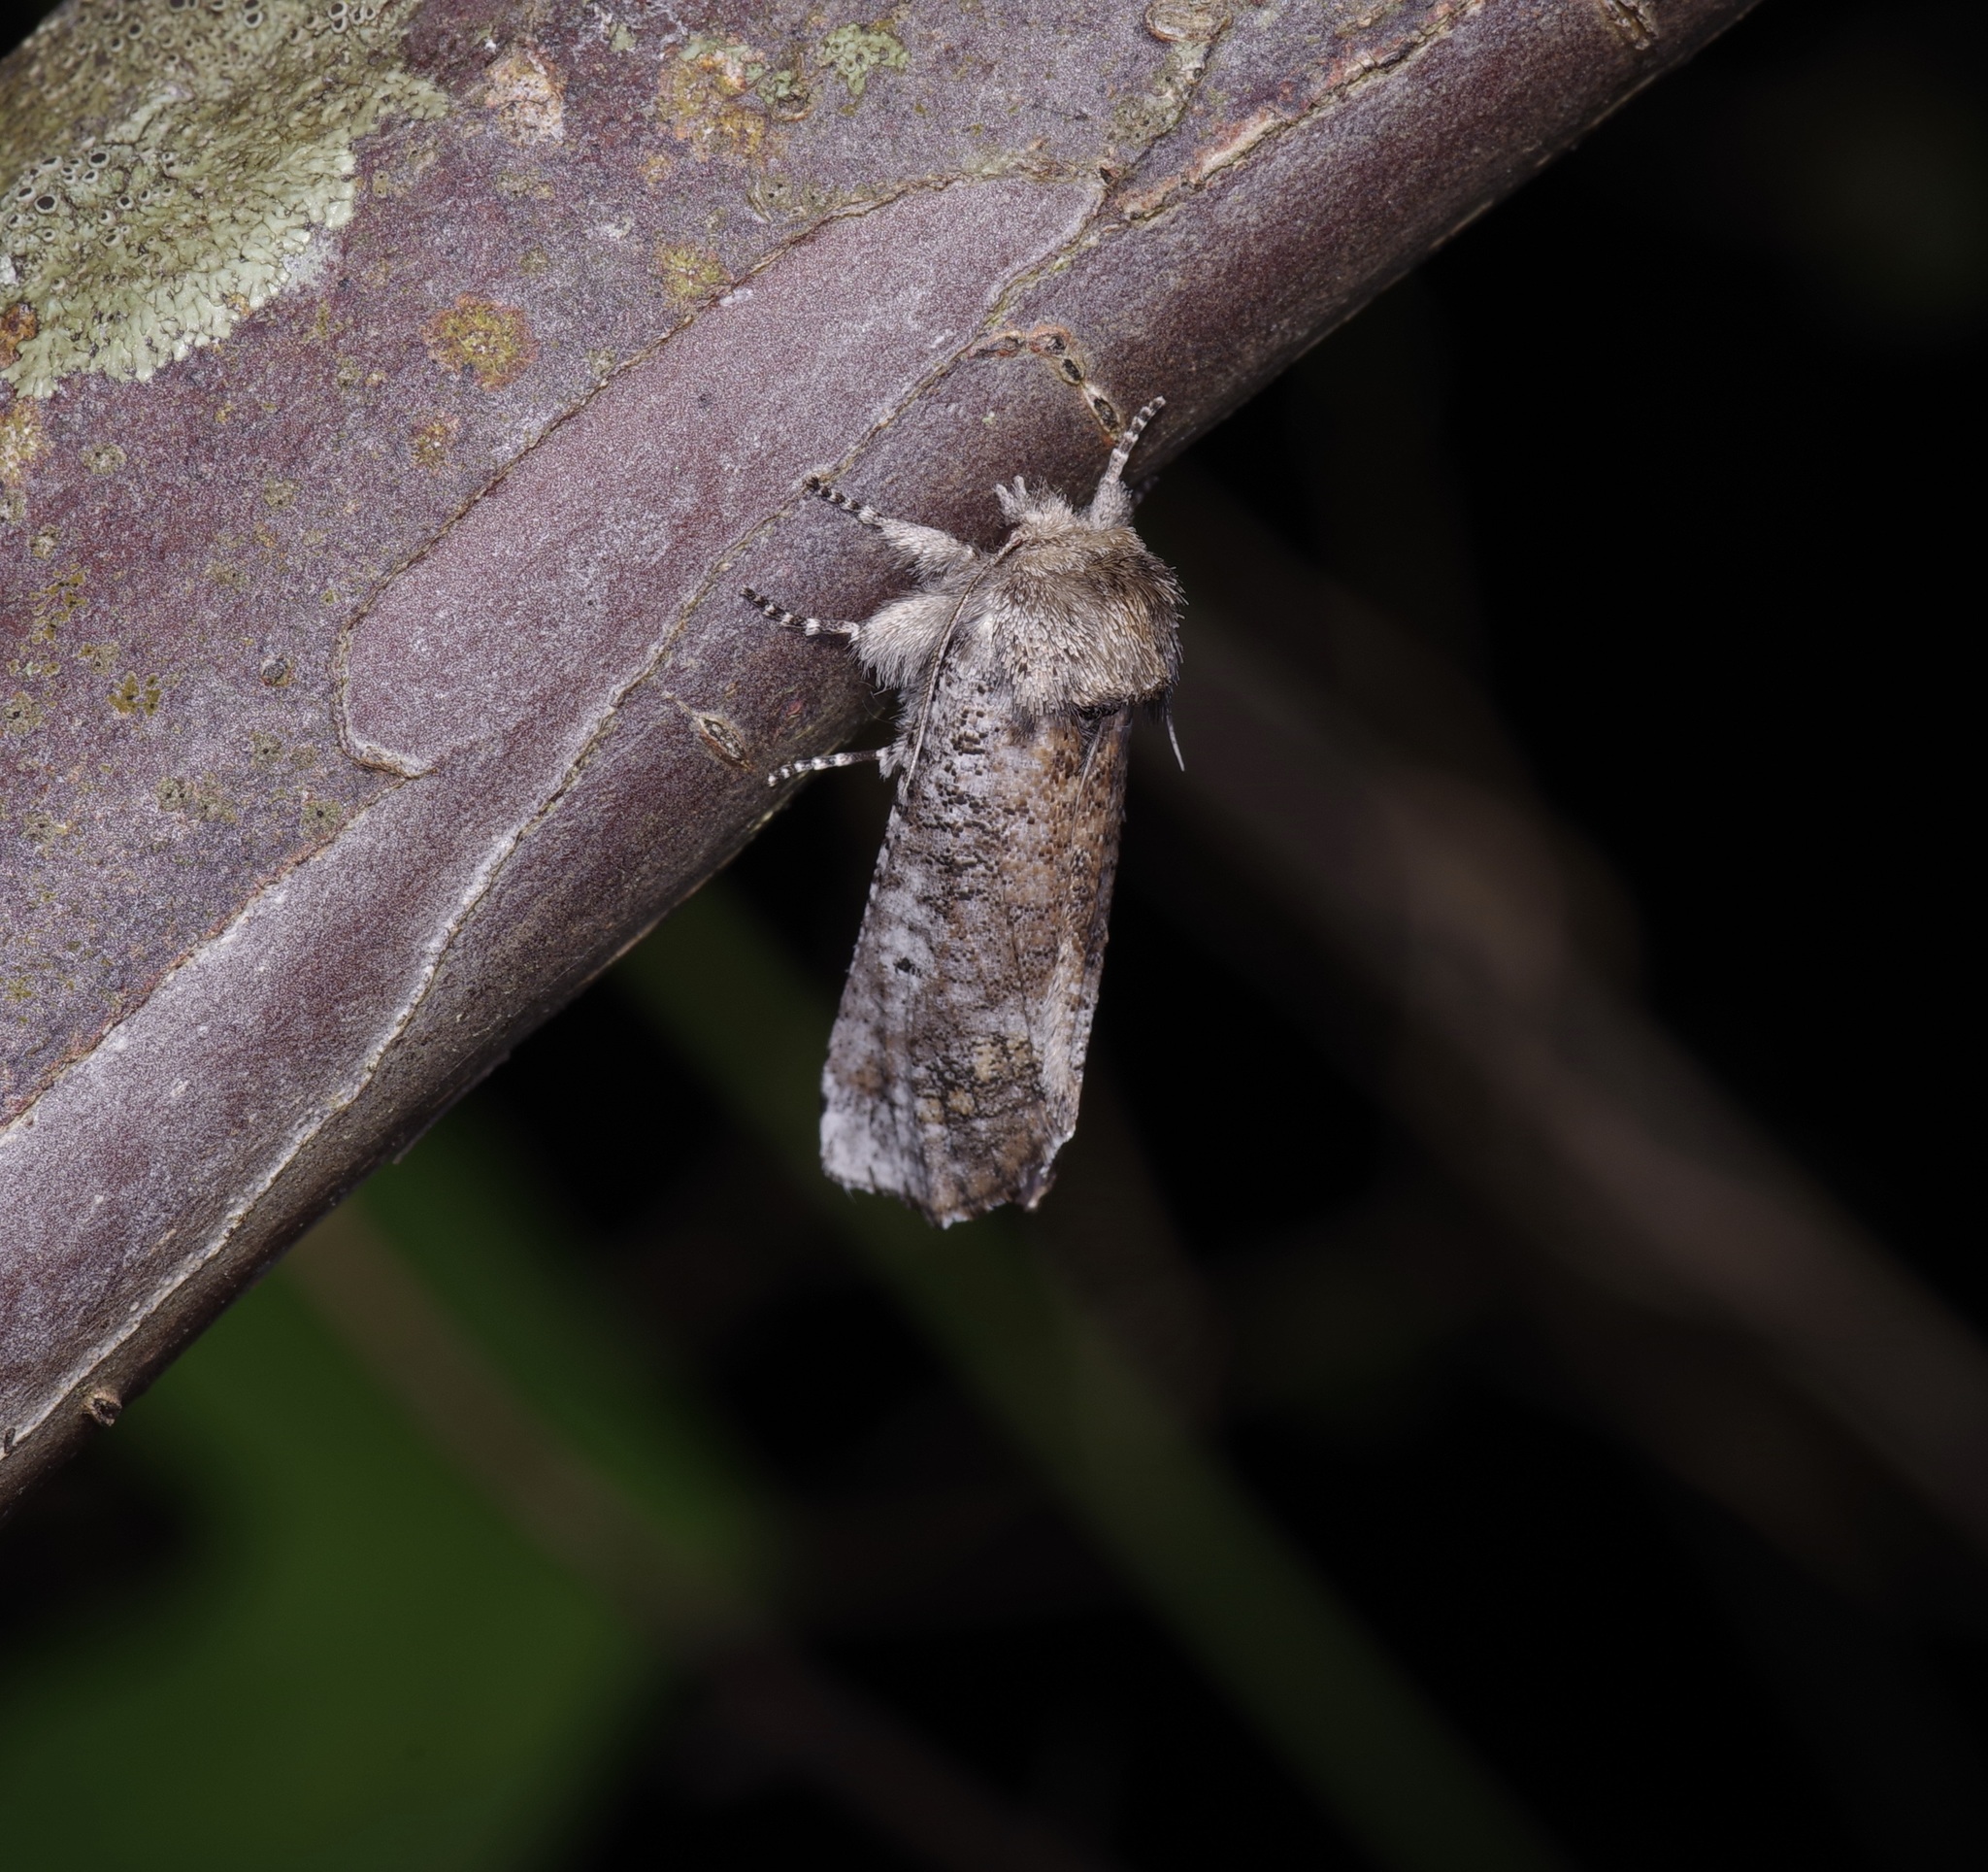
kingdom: Animalia
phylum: Arthropoda
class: Insecta
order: Lepidoptera
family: Erebidae
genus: Aon
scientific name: Aon noctuiformis
